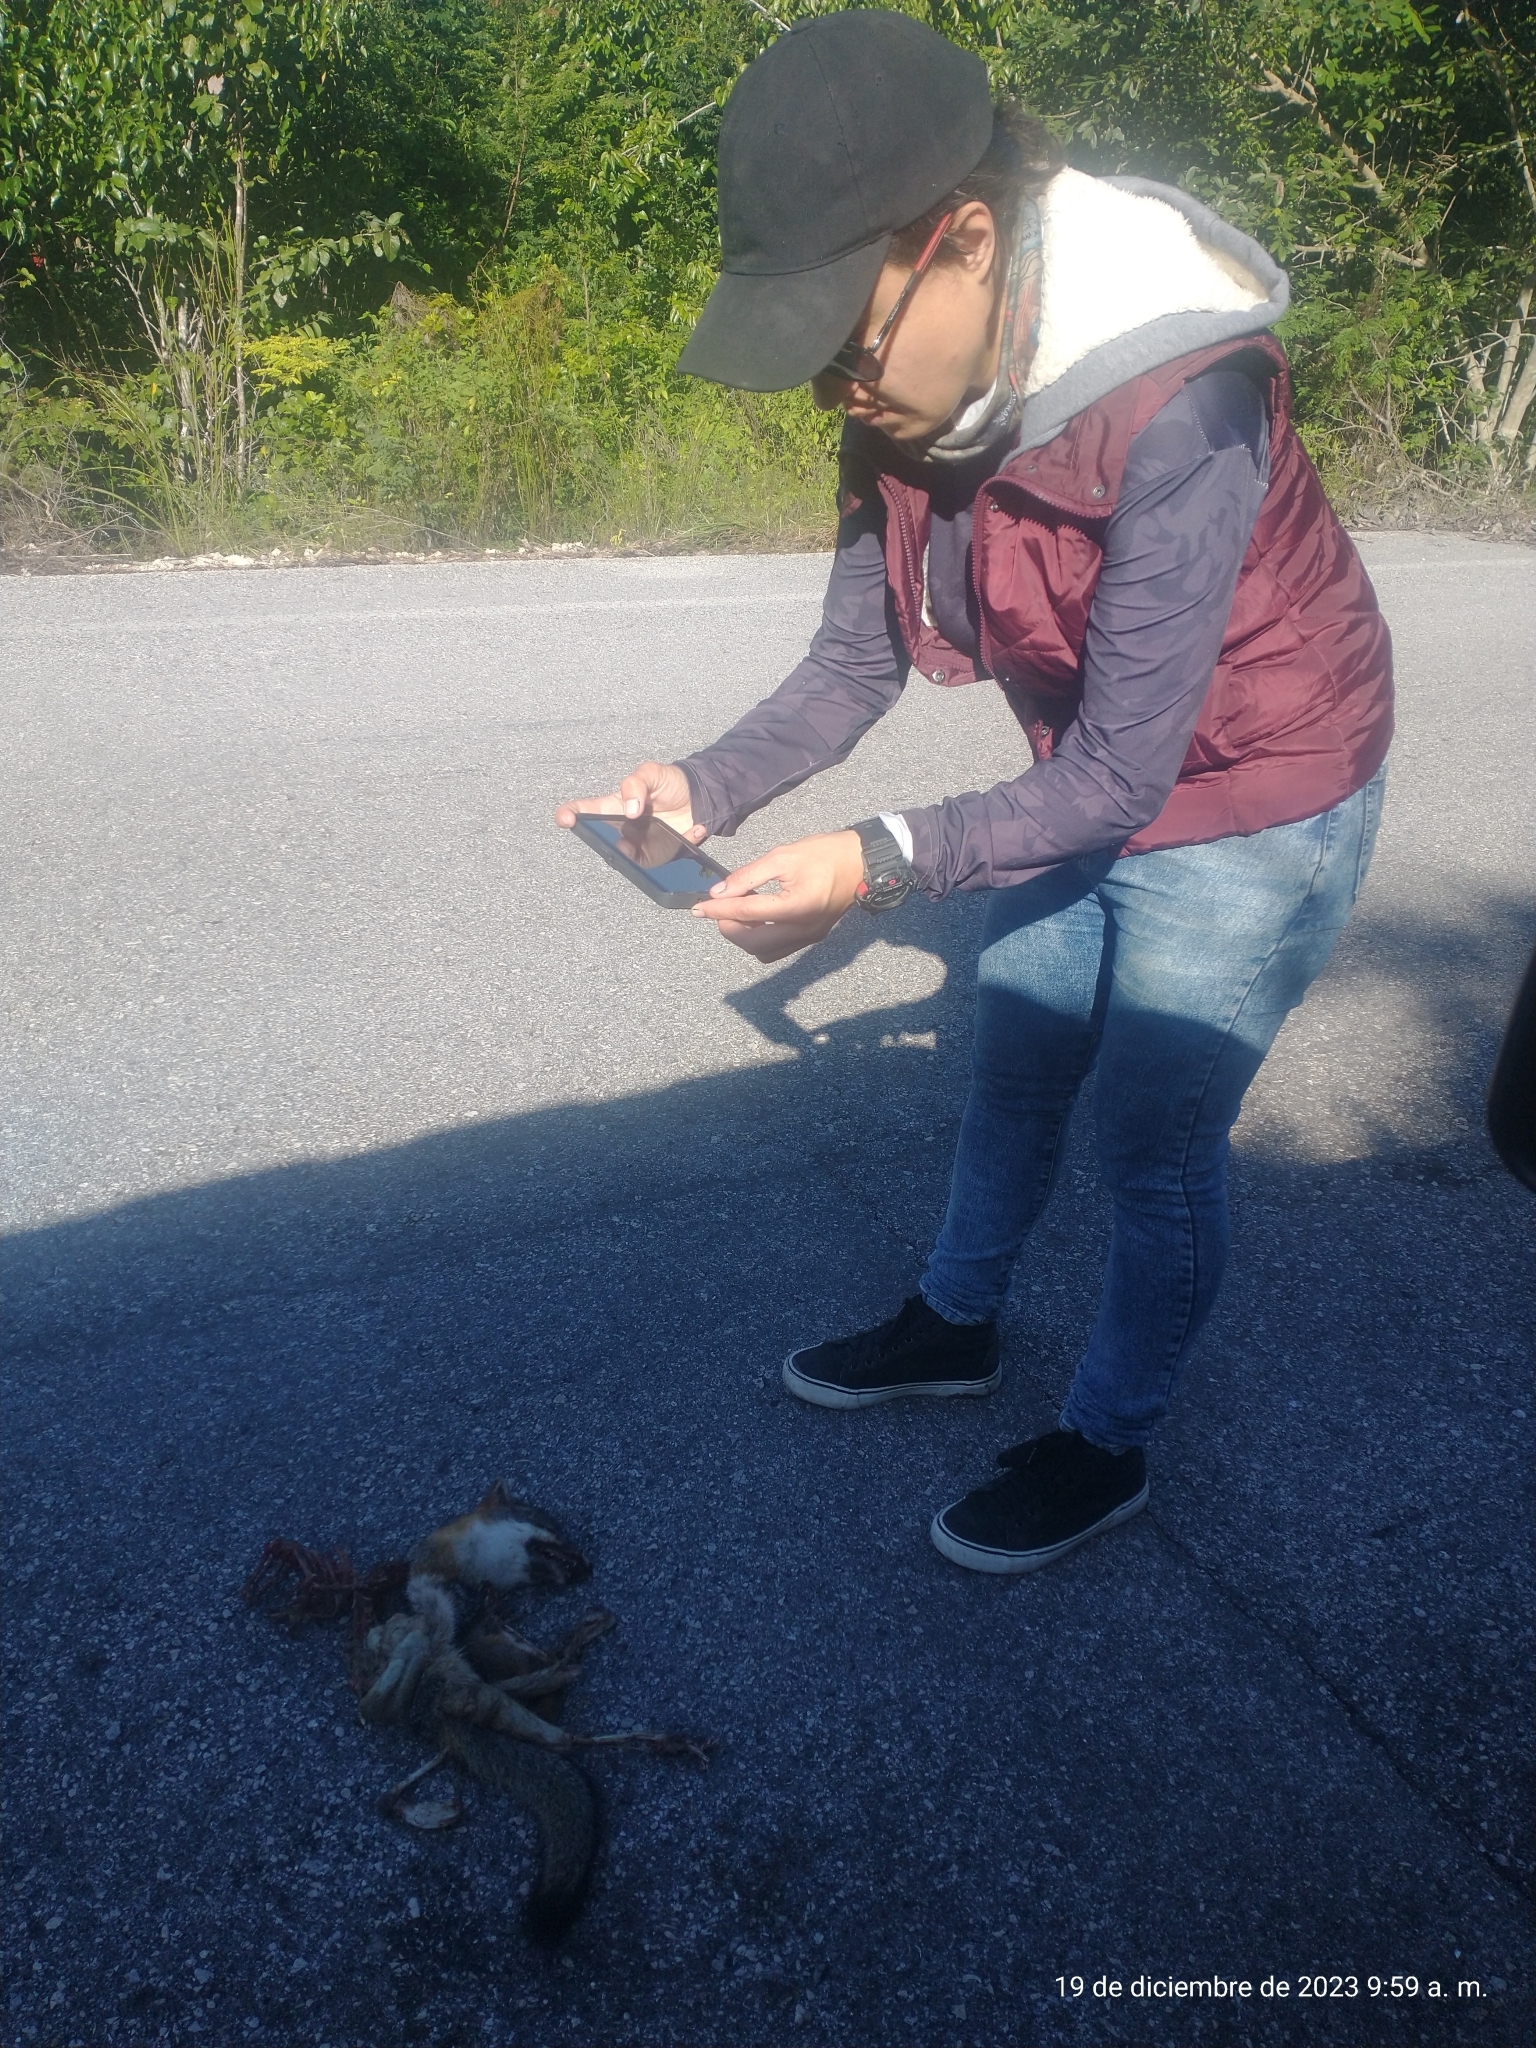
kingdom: Animalia
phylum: Chordata
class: Mammalia
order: Carnivora
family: Canidae
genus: Urocyon
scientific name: Urocyon cinereoargenteus
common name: Gray fox
